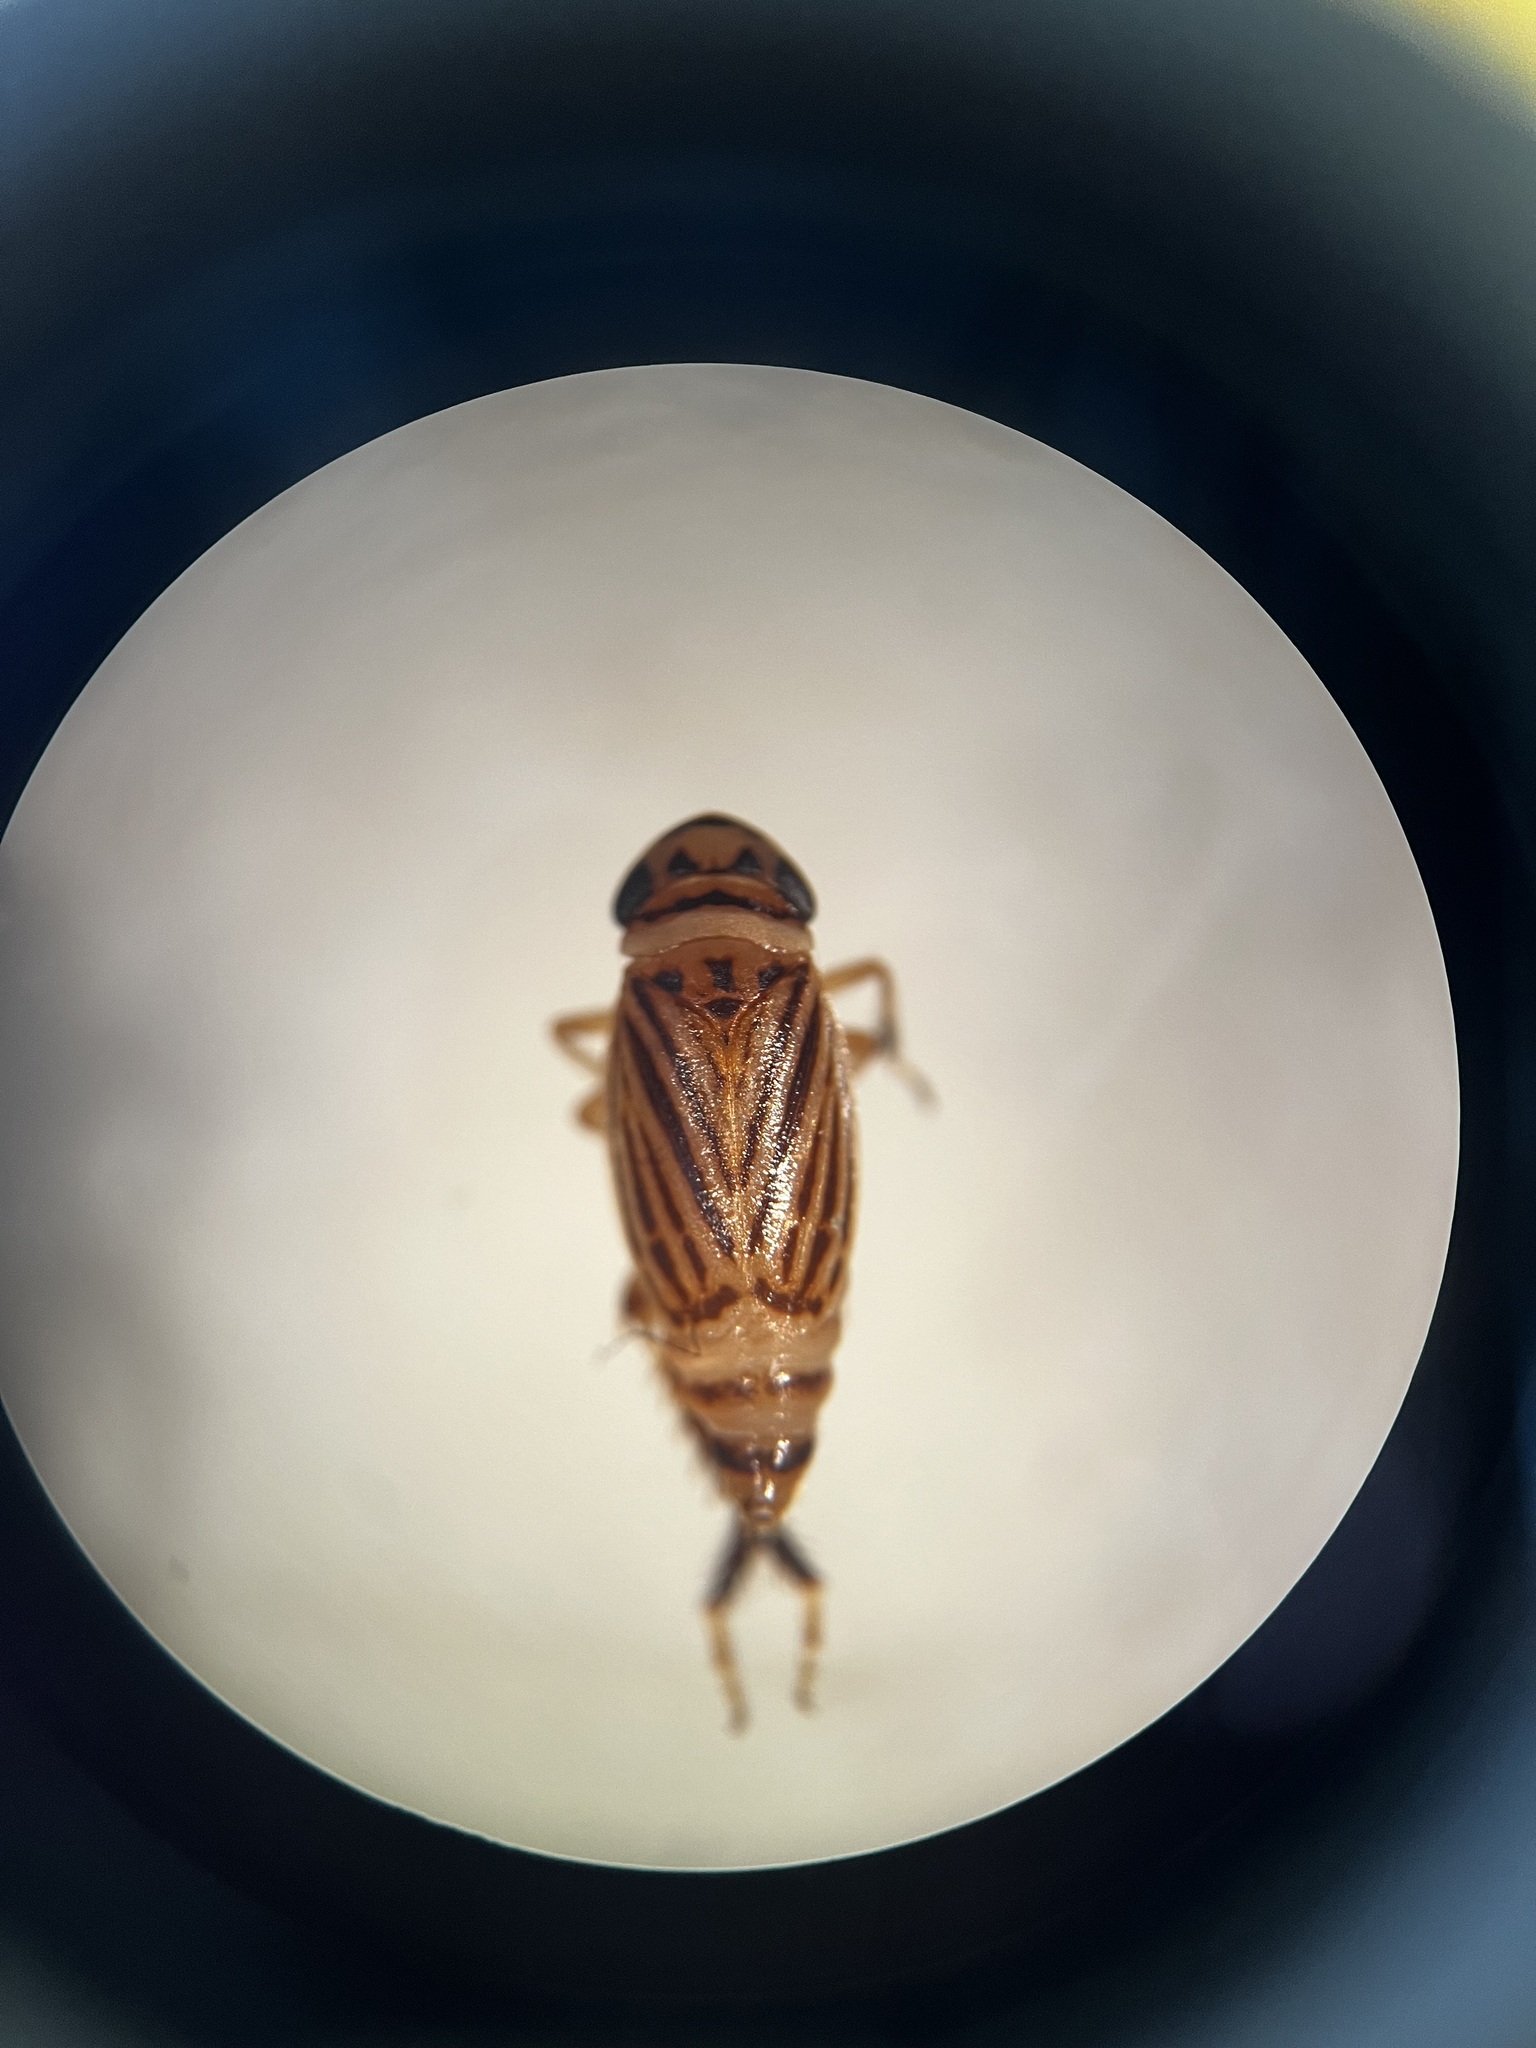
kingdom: Animalia
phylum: Arthropoda
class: Insecta
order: Hemiptera
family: Cicadellidae
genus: Anoscopus
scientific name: Anoscopus flavostriatus
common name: Leafhopper
